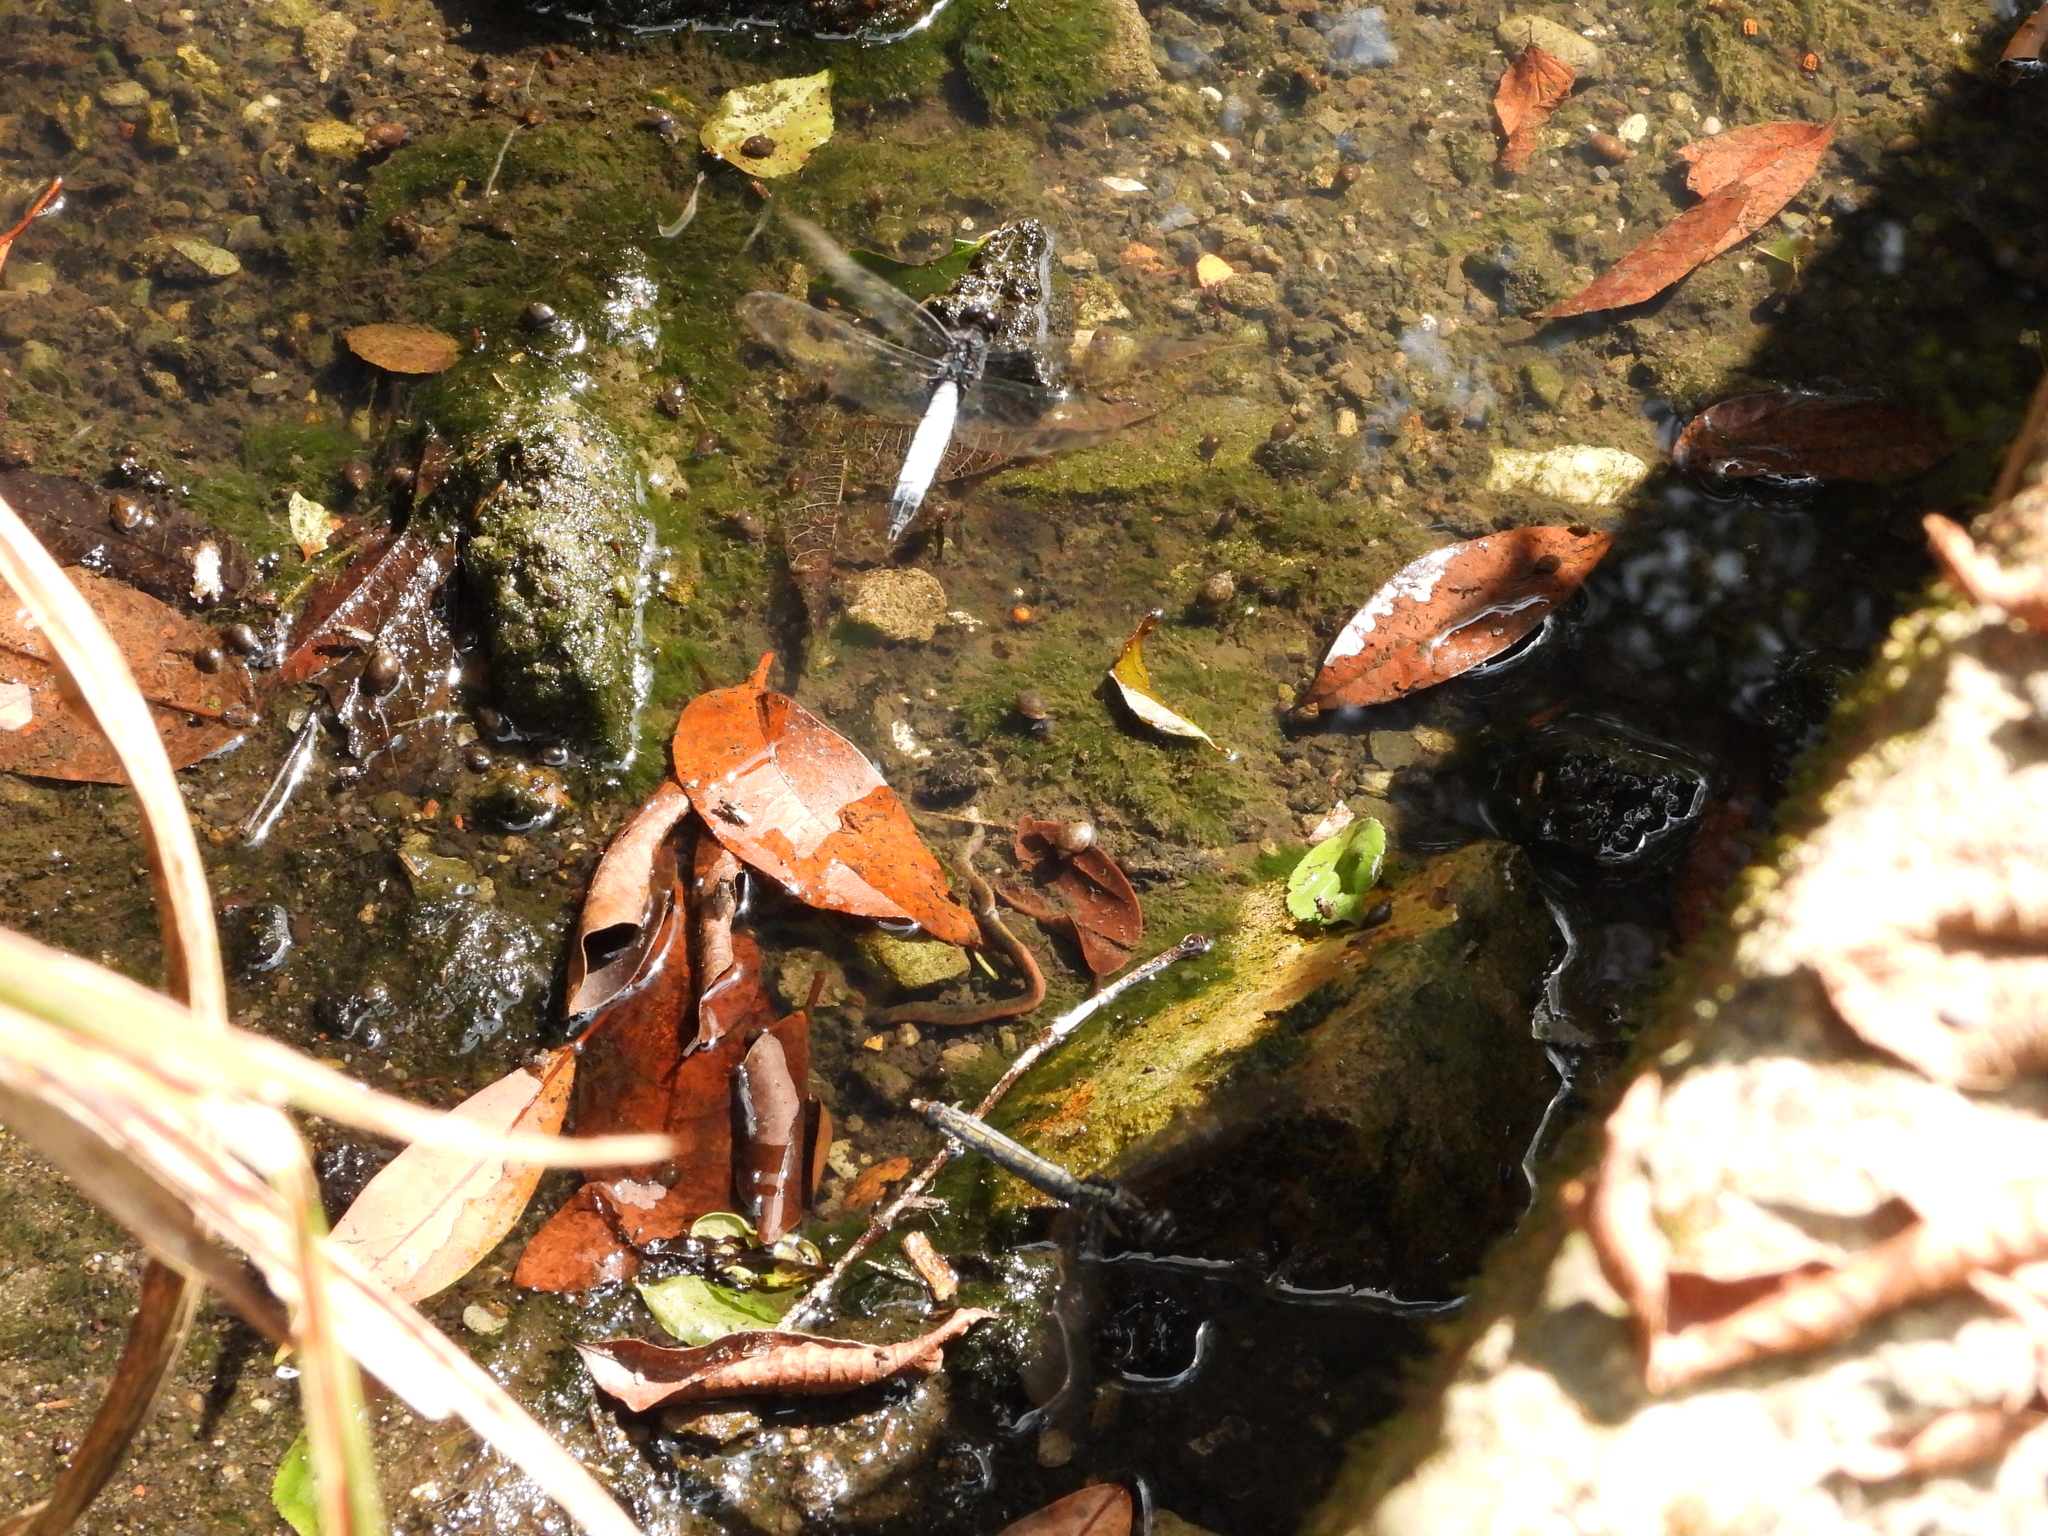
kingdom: Animalia
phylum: Arthropoda
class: Insecta
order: Odonata
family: Libellulidae
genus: Orthetrum
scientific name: Orthetrum triangulare
